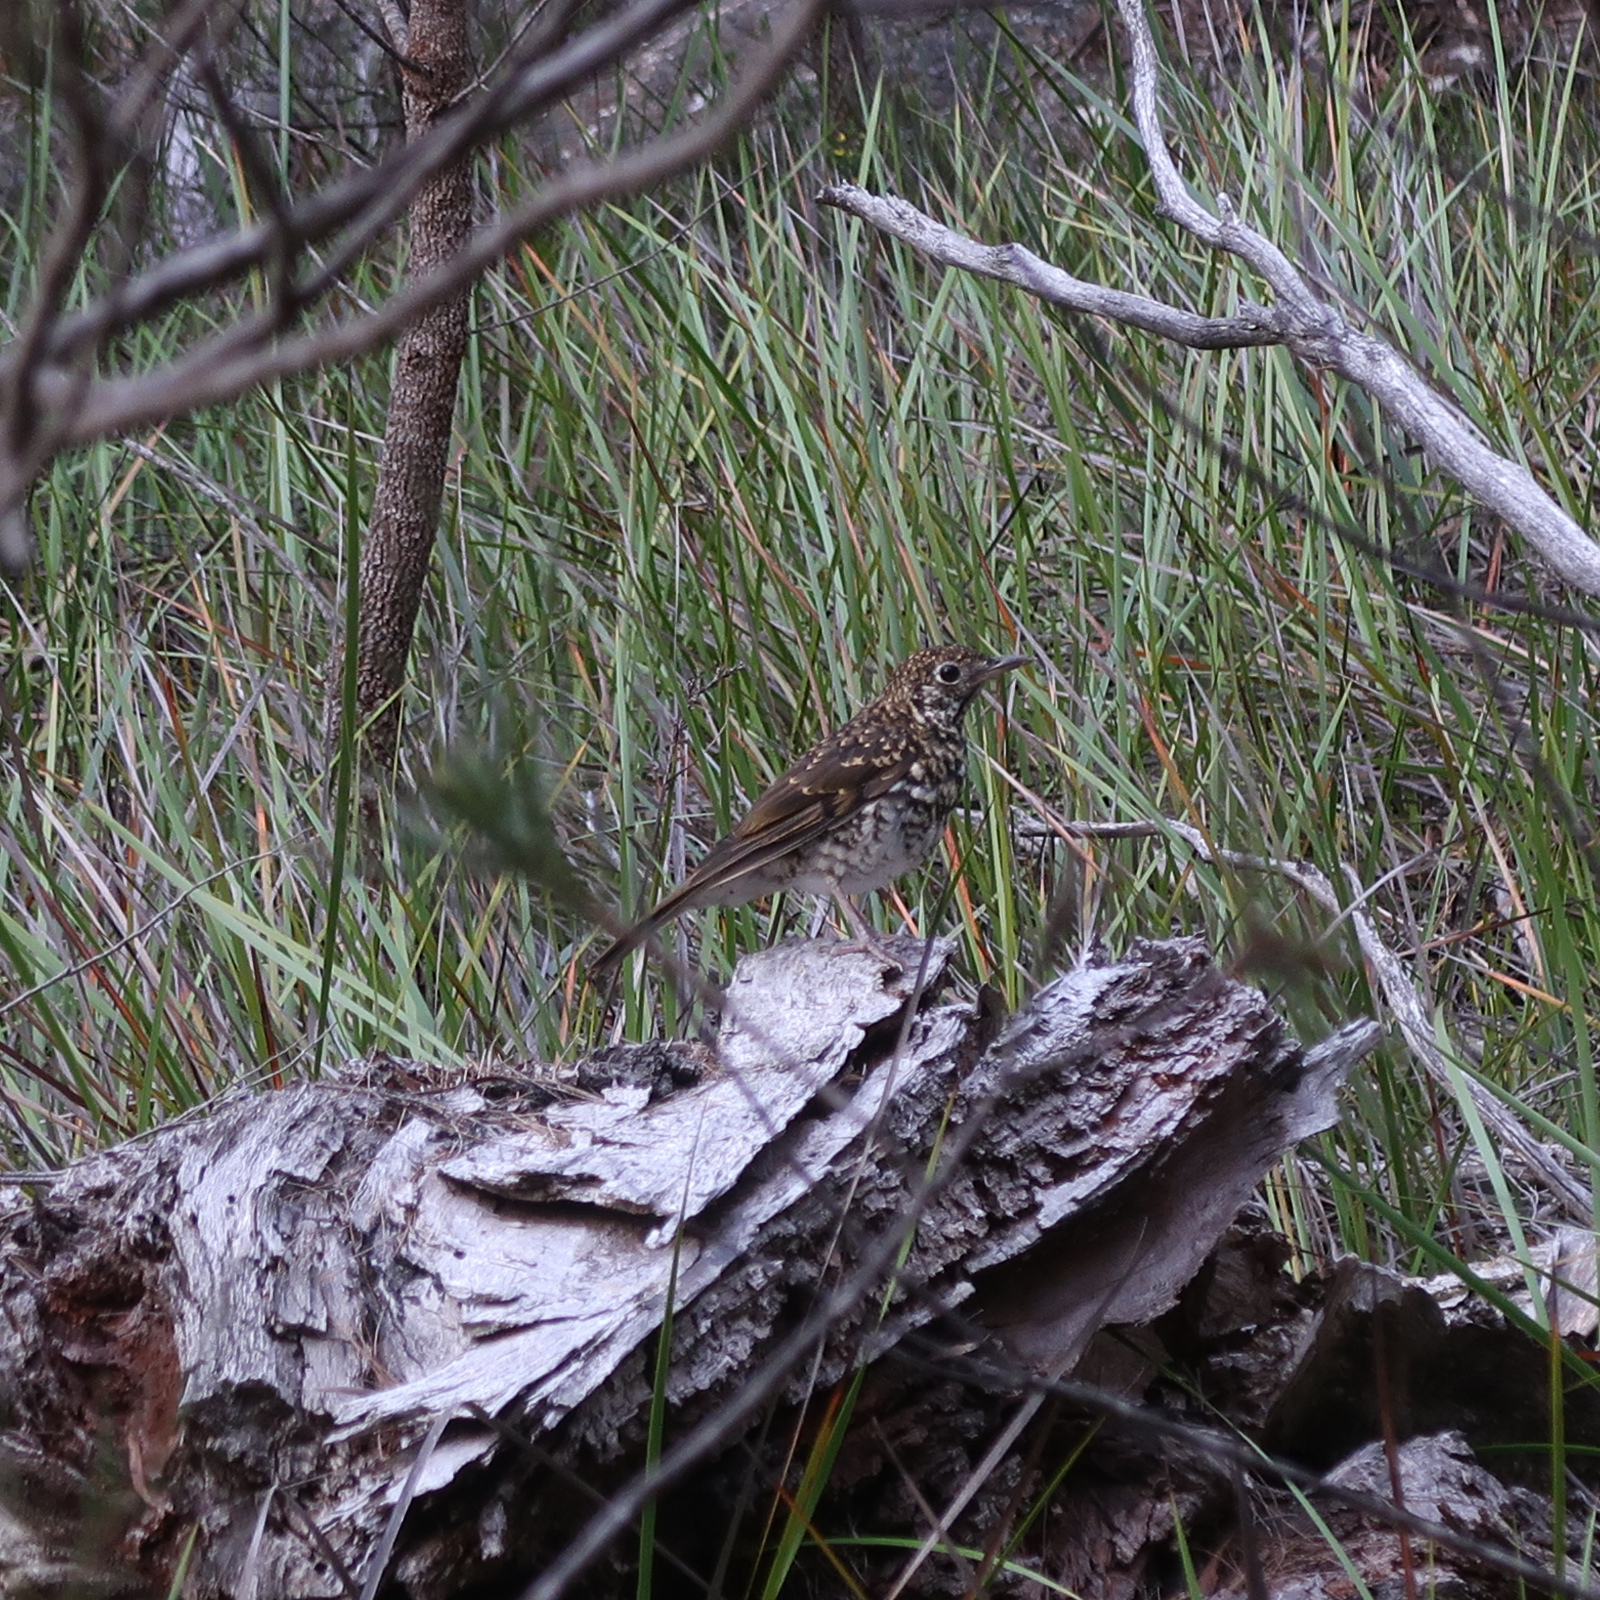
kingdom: Animalia
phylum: Chordata
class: Aves
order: Passeriformes
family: Turdidae
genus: Zoothera
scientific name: Zoothera lunulata
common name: Bassian thrush
